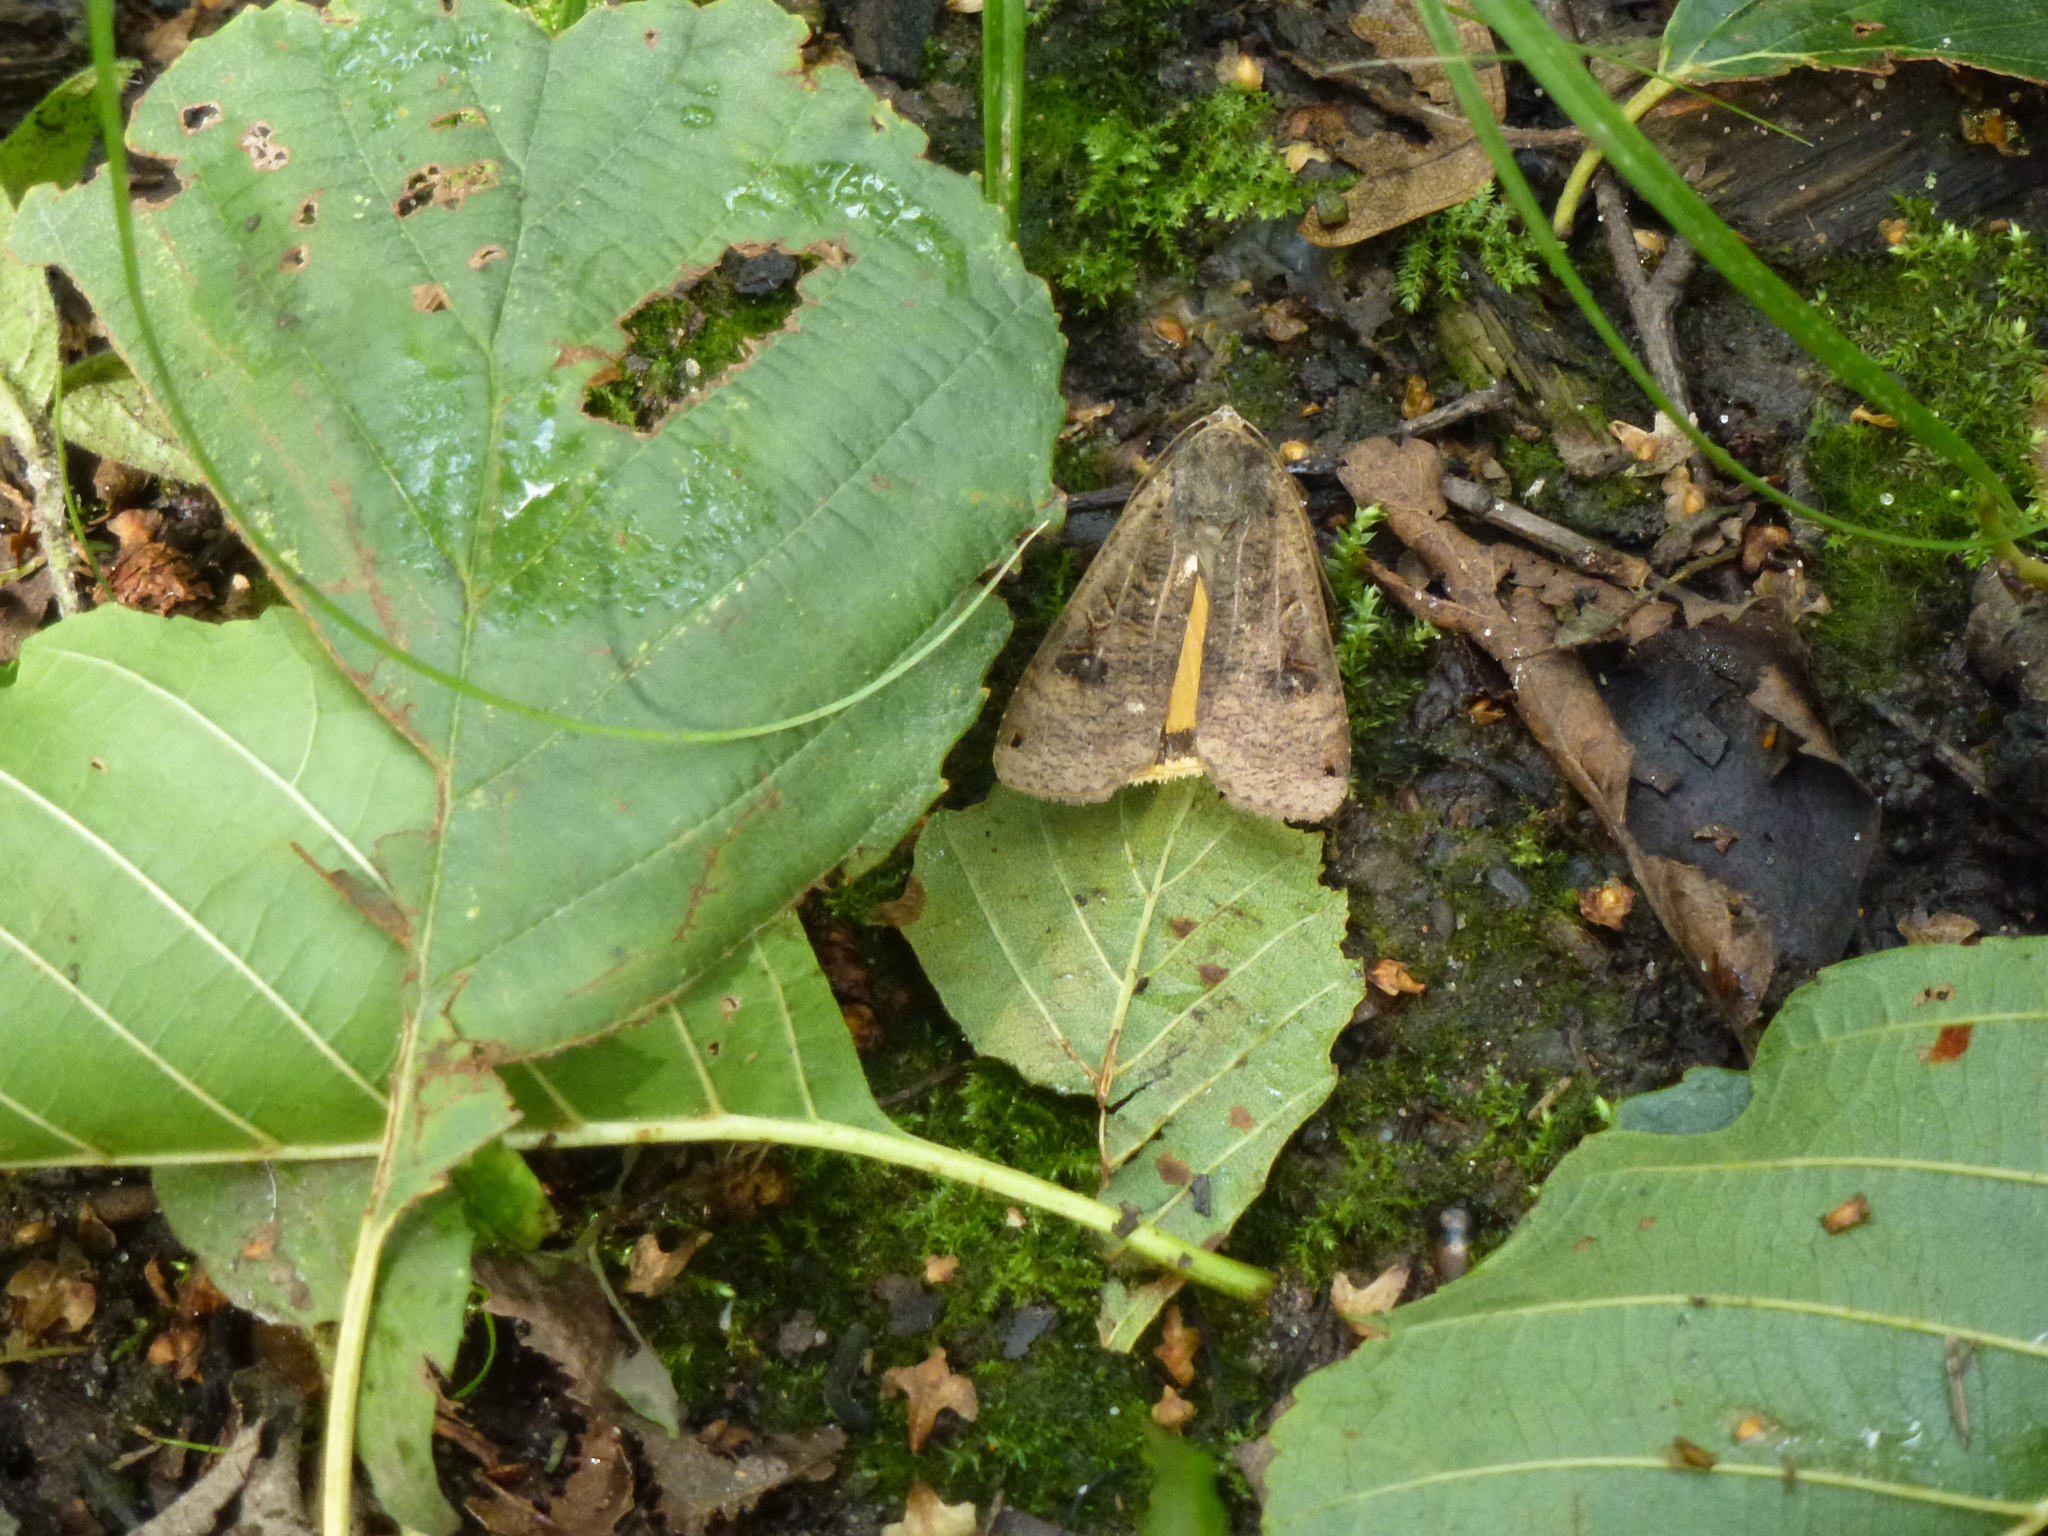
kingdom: Animalia
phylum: Arthropoda
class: Insecta
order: Lepidoptera
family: Noctuidae
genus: Noctua
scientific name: Noctua pronuba
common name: Large yellow underwing
